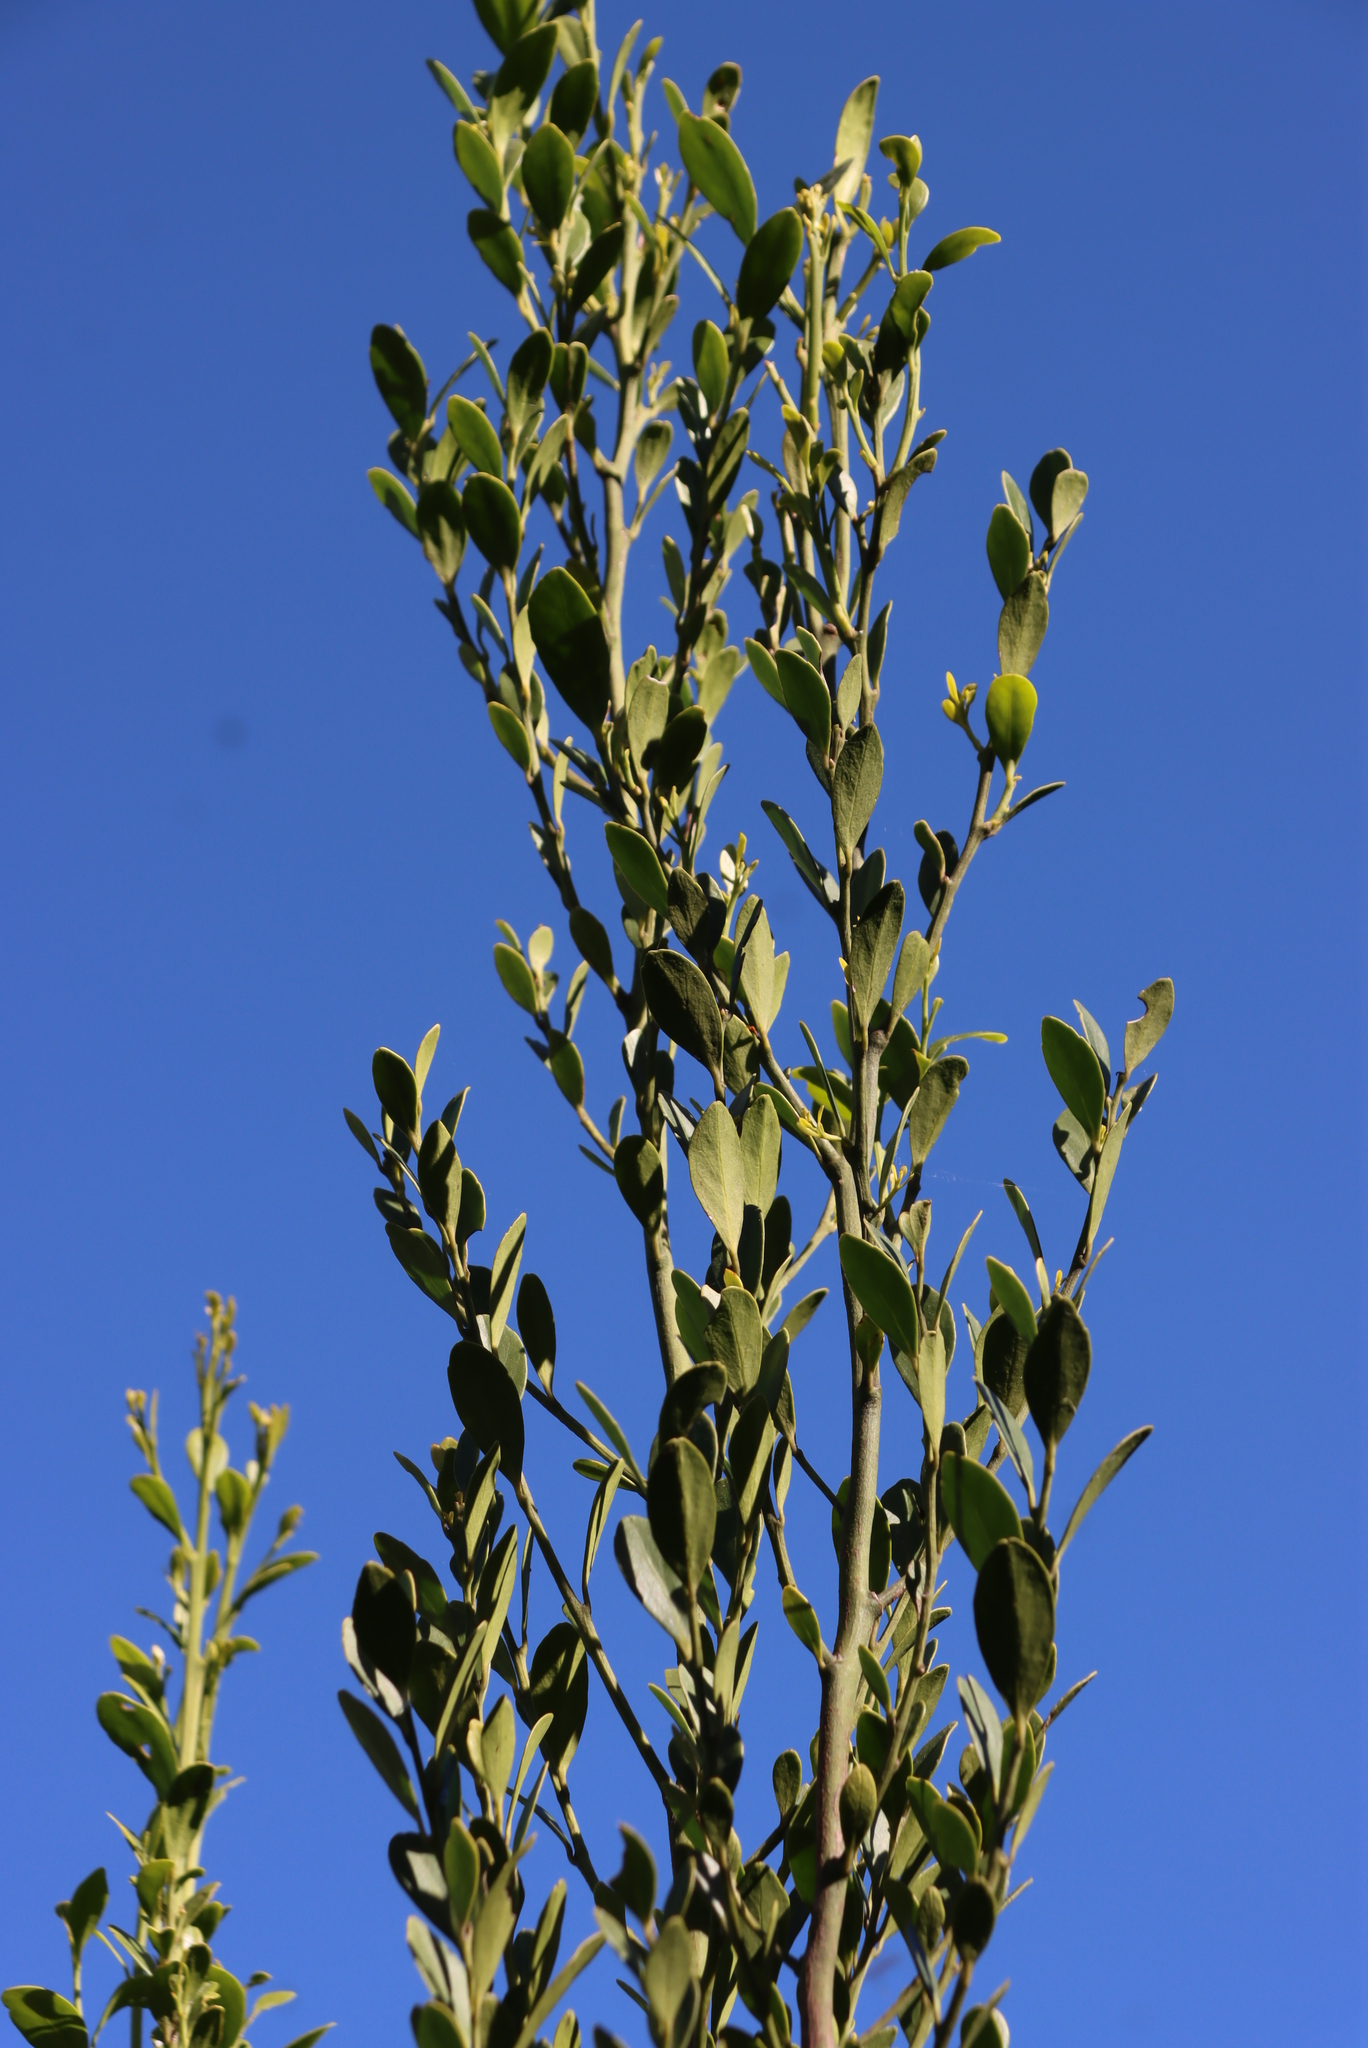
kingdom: Plantae
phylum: Tracheophyta
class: Magnoliopsida
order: Celastrales
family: Celastraceae
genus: Robsonodendron
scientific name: Robsonodendron maritimum
